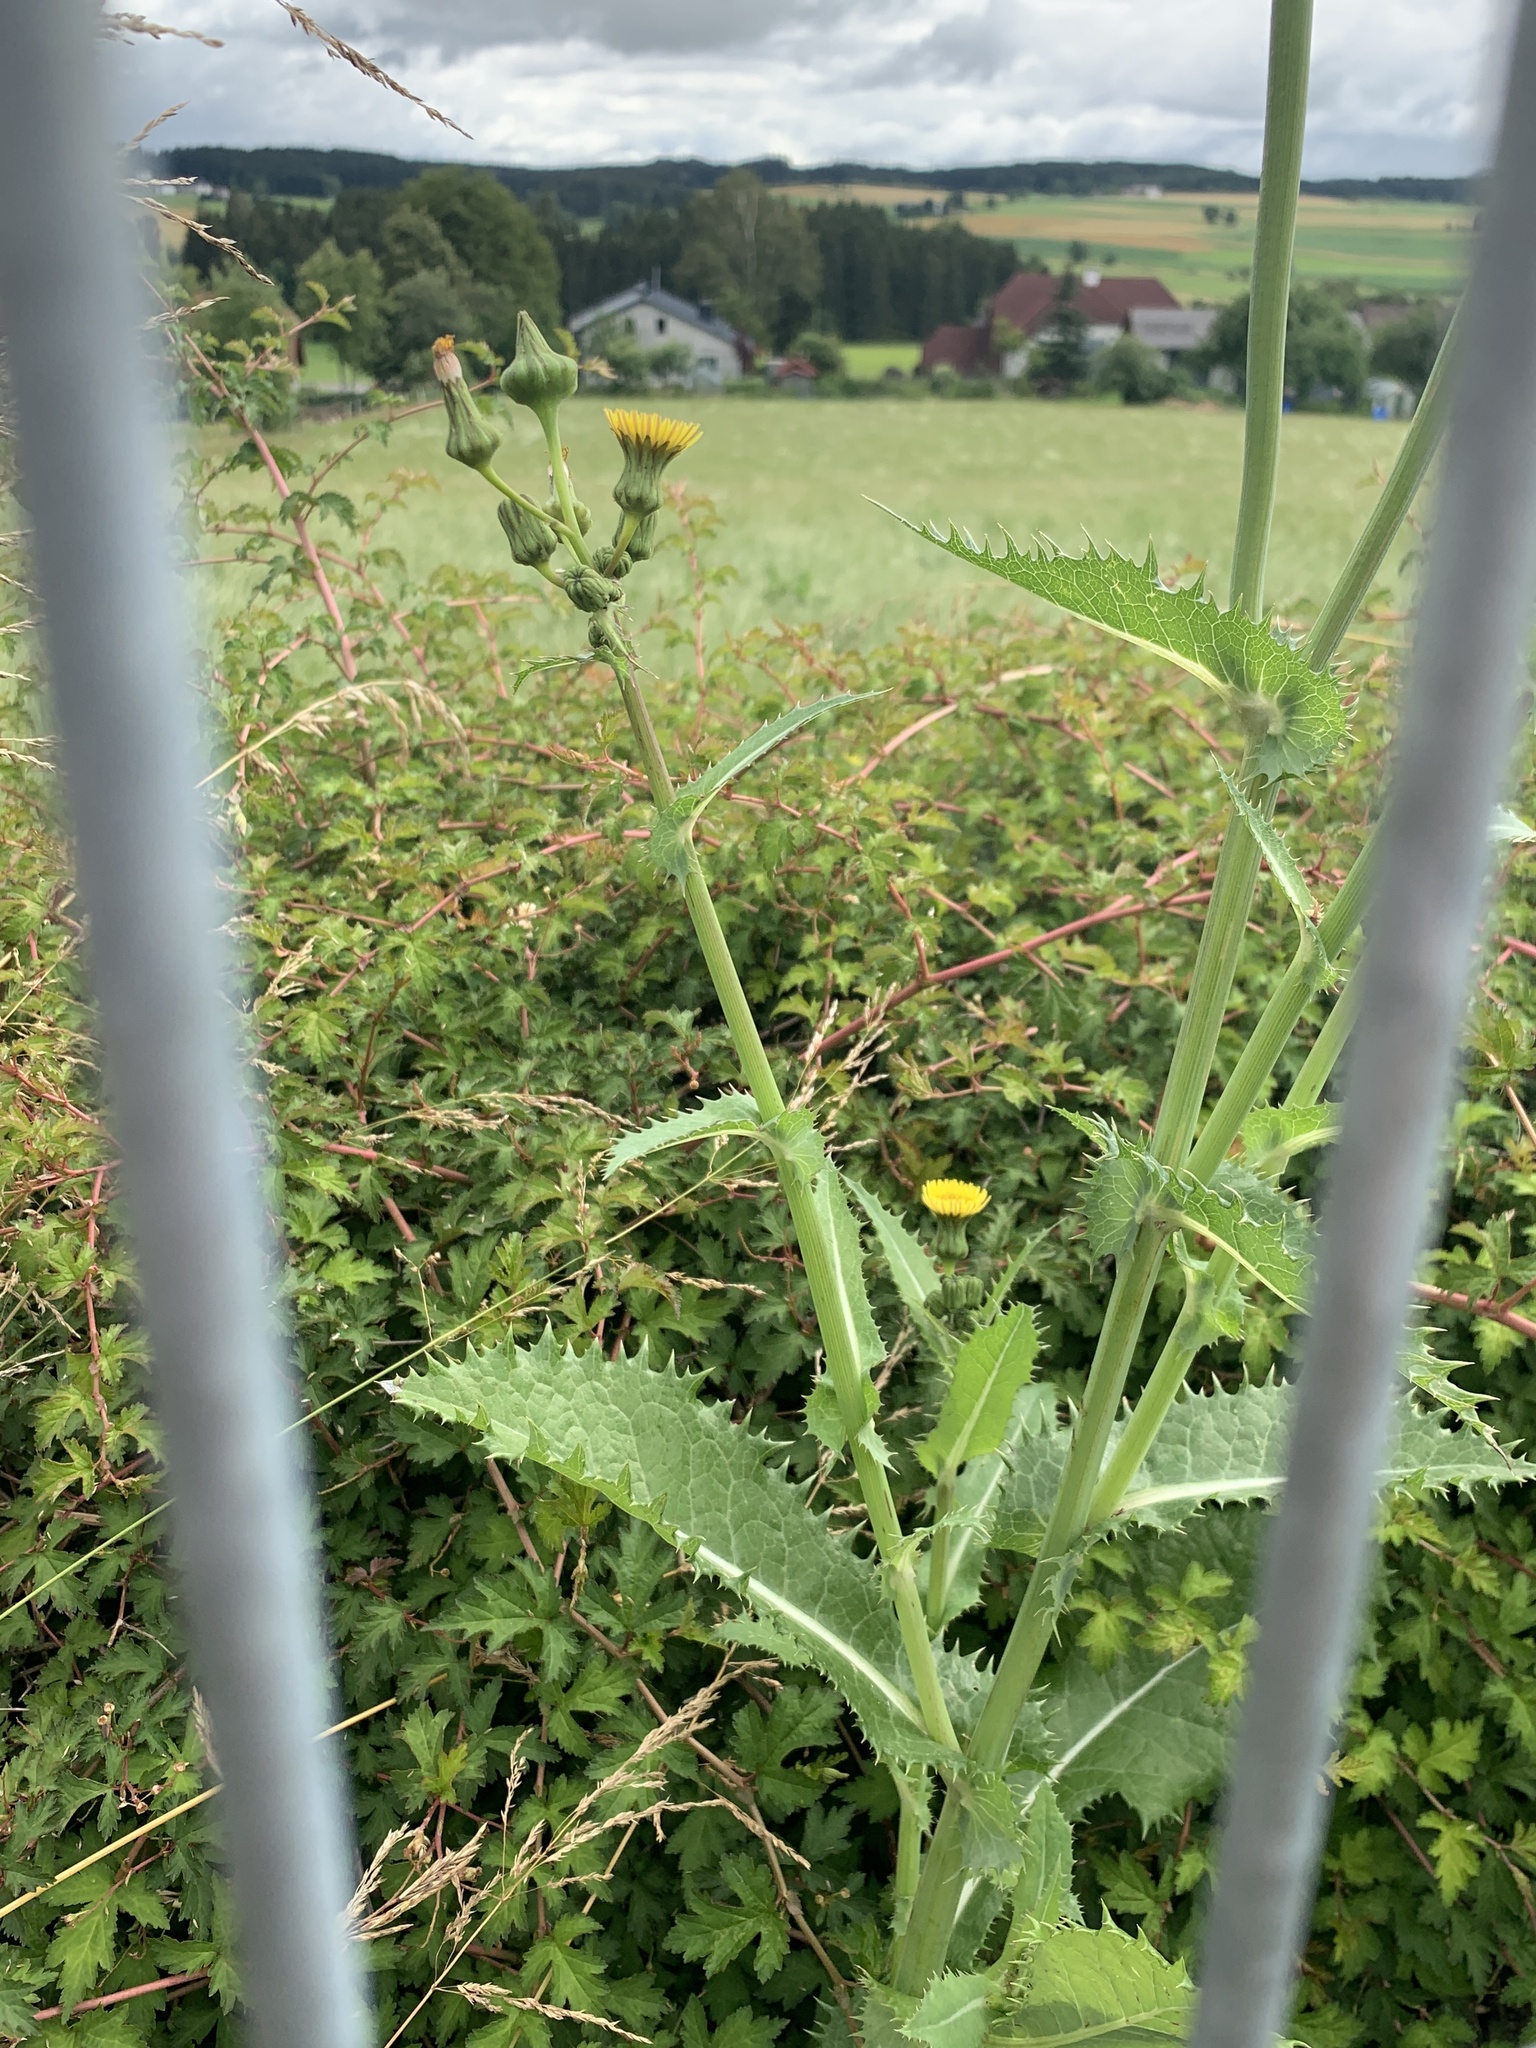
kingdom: Plantae
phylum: Tracheophyta
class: Magnoliopsida
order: Asterales
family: Asteraceae
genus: Sonchus
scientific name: Sonchus asper
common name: Prickly sow-thistle
